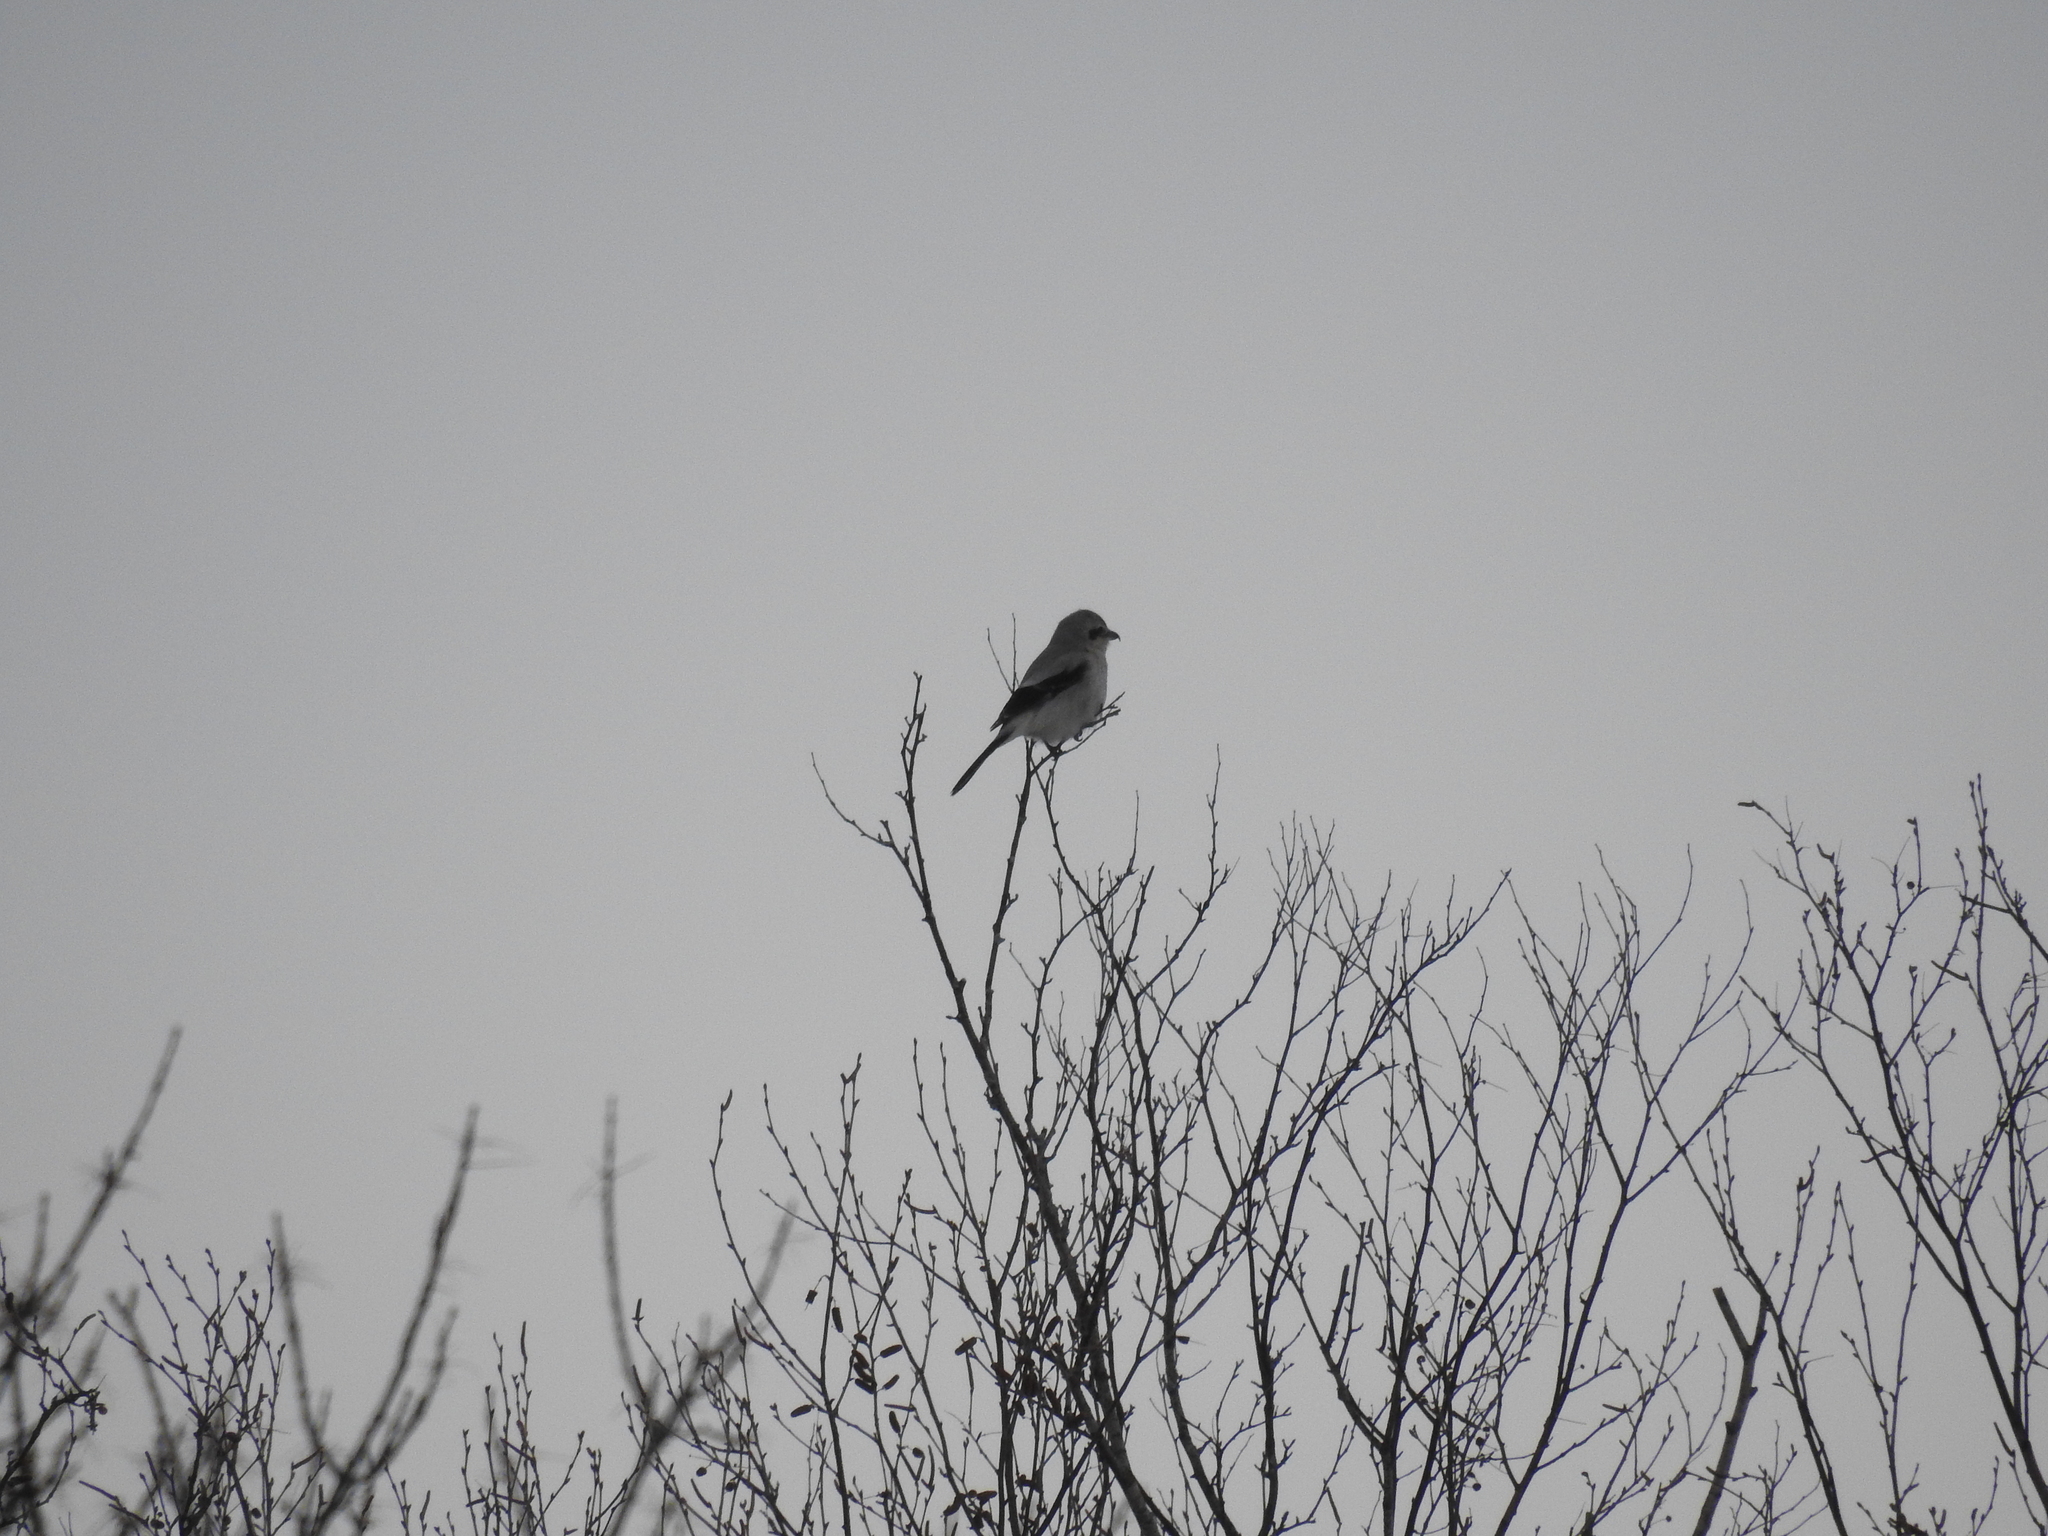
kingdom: Animalia
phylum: Chordata
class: Aves
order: Passeriformes
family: Laniidae
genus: Lanius
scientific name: Lanius borealis
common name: Northern shrike
